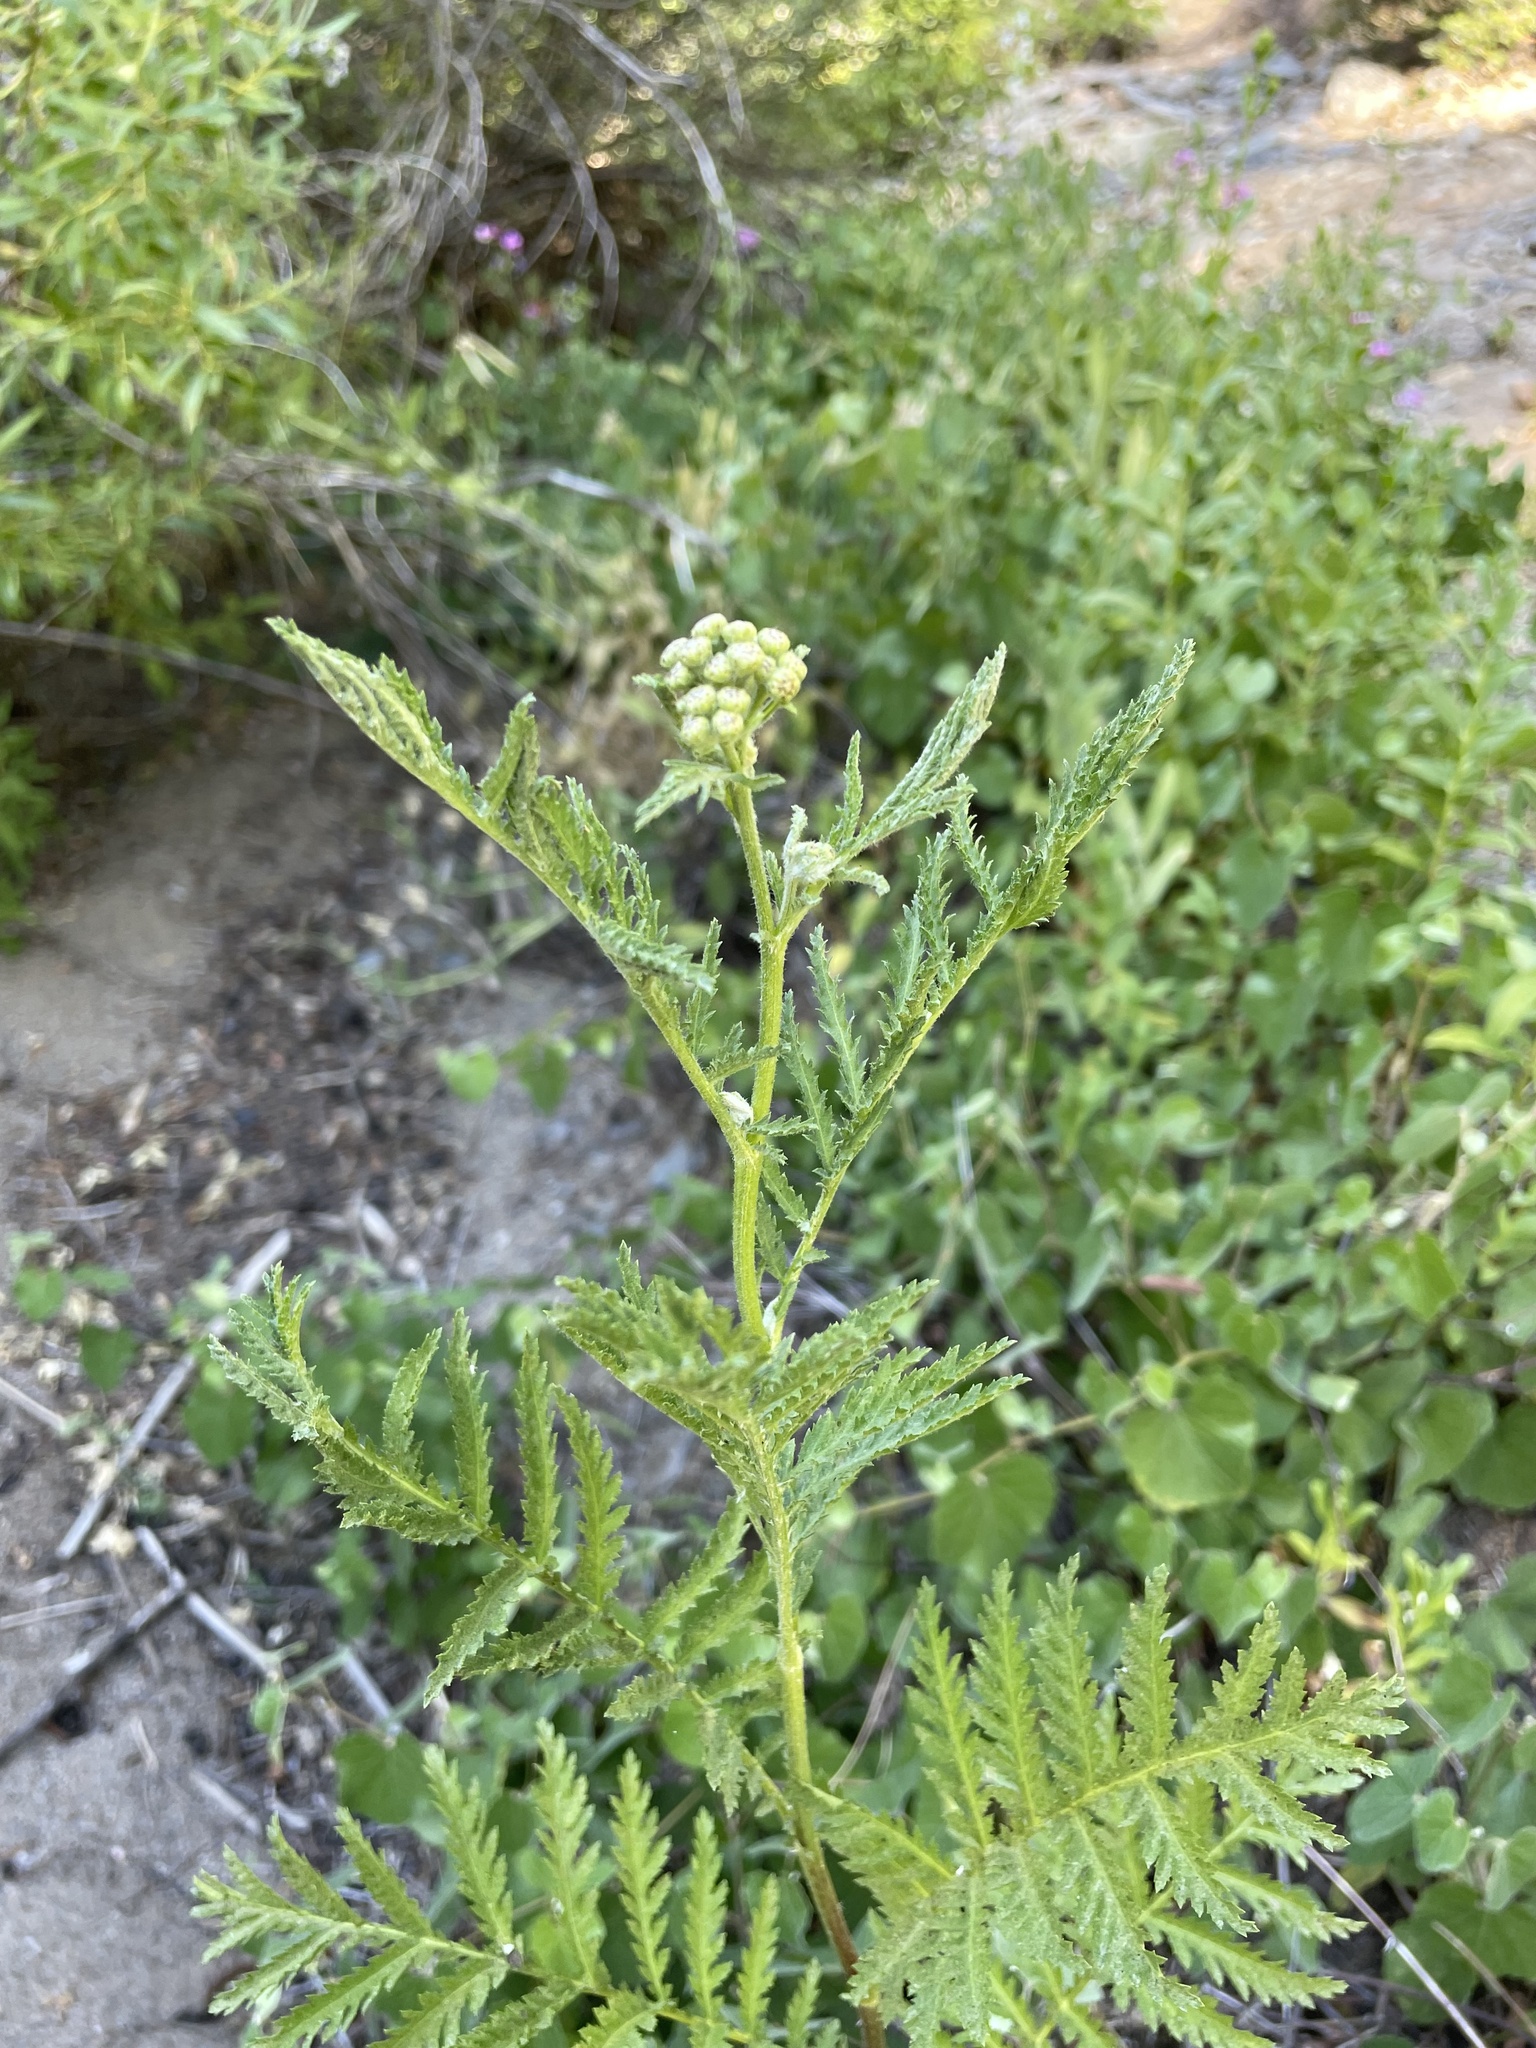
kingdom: Plantae
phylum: Tracheophyta
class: Magnoliopsida
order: Asterales
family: Asteraceae
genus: Tanacetum
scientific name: Tanacetum vulgare
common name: Common tansy
